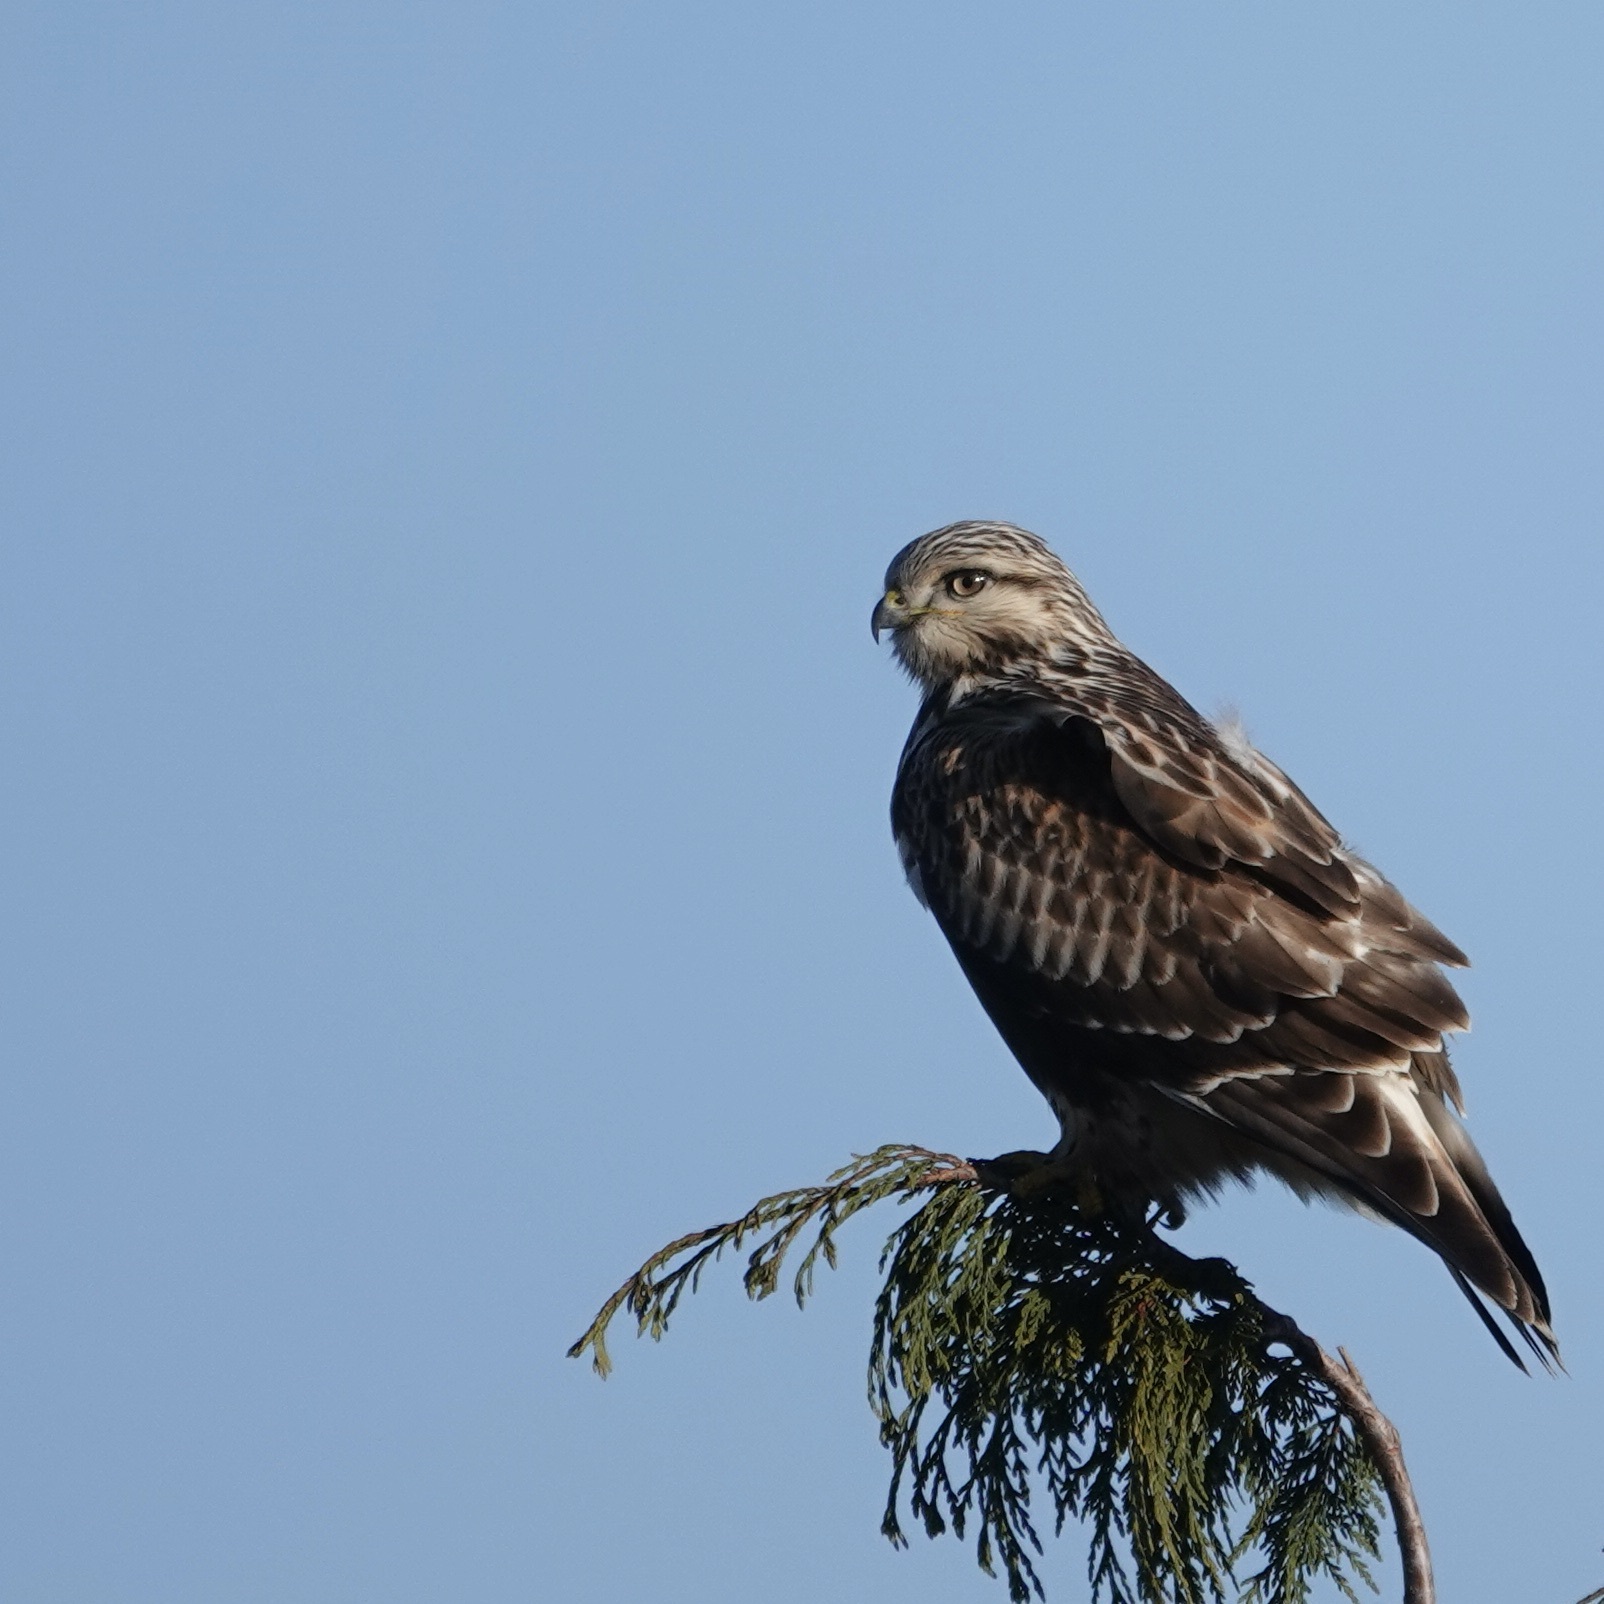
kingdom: Animalia
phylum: Chordata
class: Aves
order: Accipitriformes
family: Accipitridae
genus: Buteo
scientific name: Buteo lagopus
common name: Rough-legged buzzard
